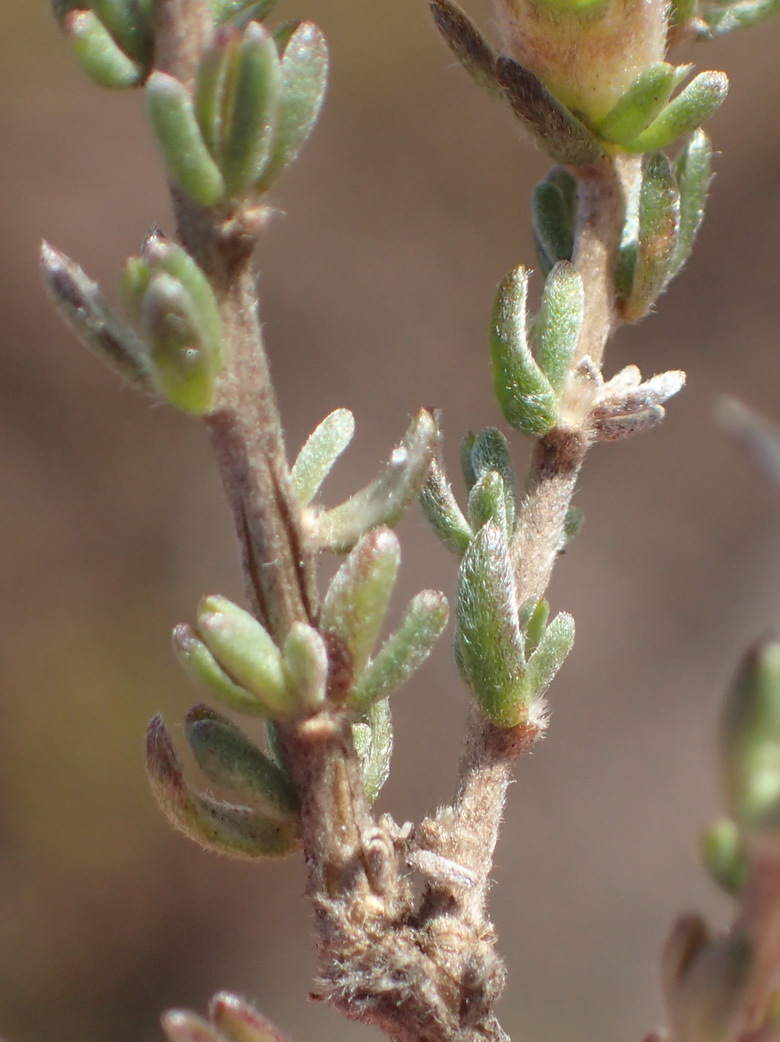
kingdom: Plantae
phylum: Tracheophyta
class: Magnoliopsida
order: Fabales
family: Fabaceae
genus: Aspalathus
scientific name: Aspalathus quadrata
